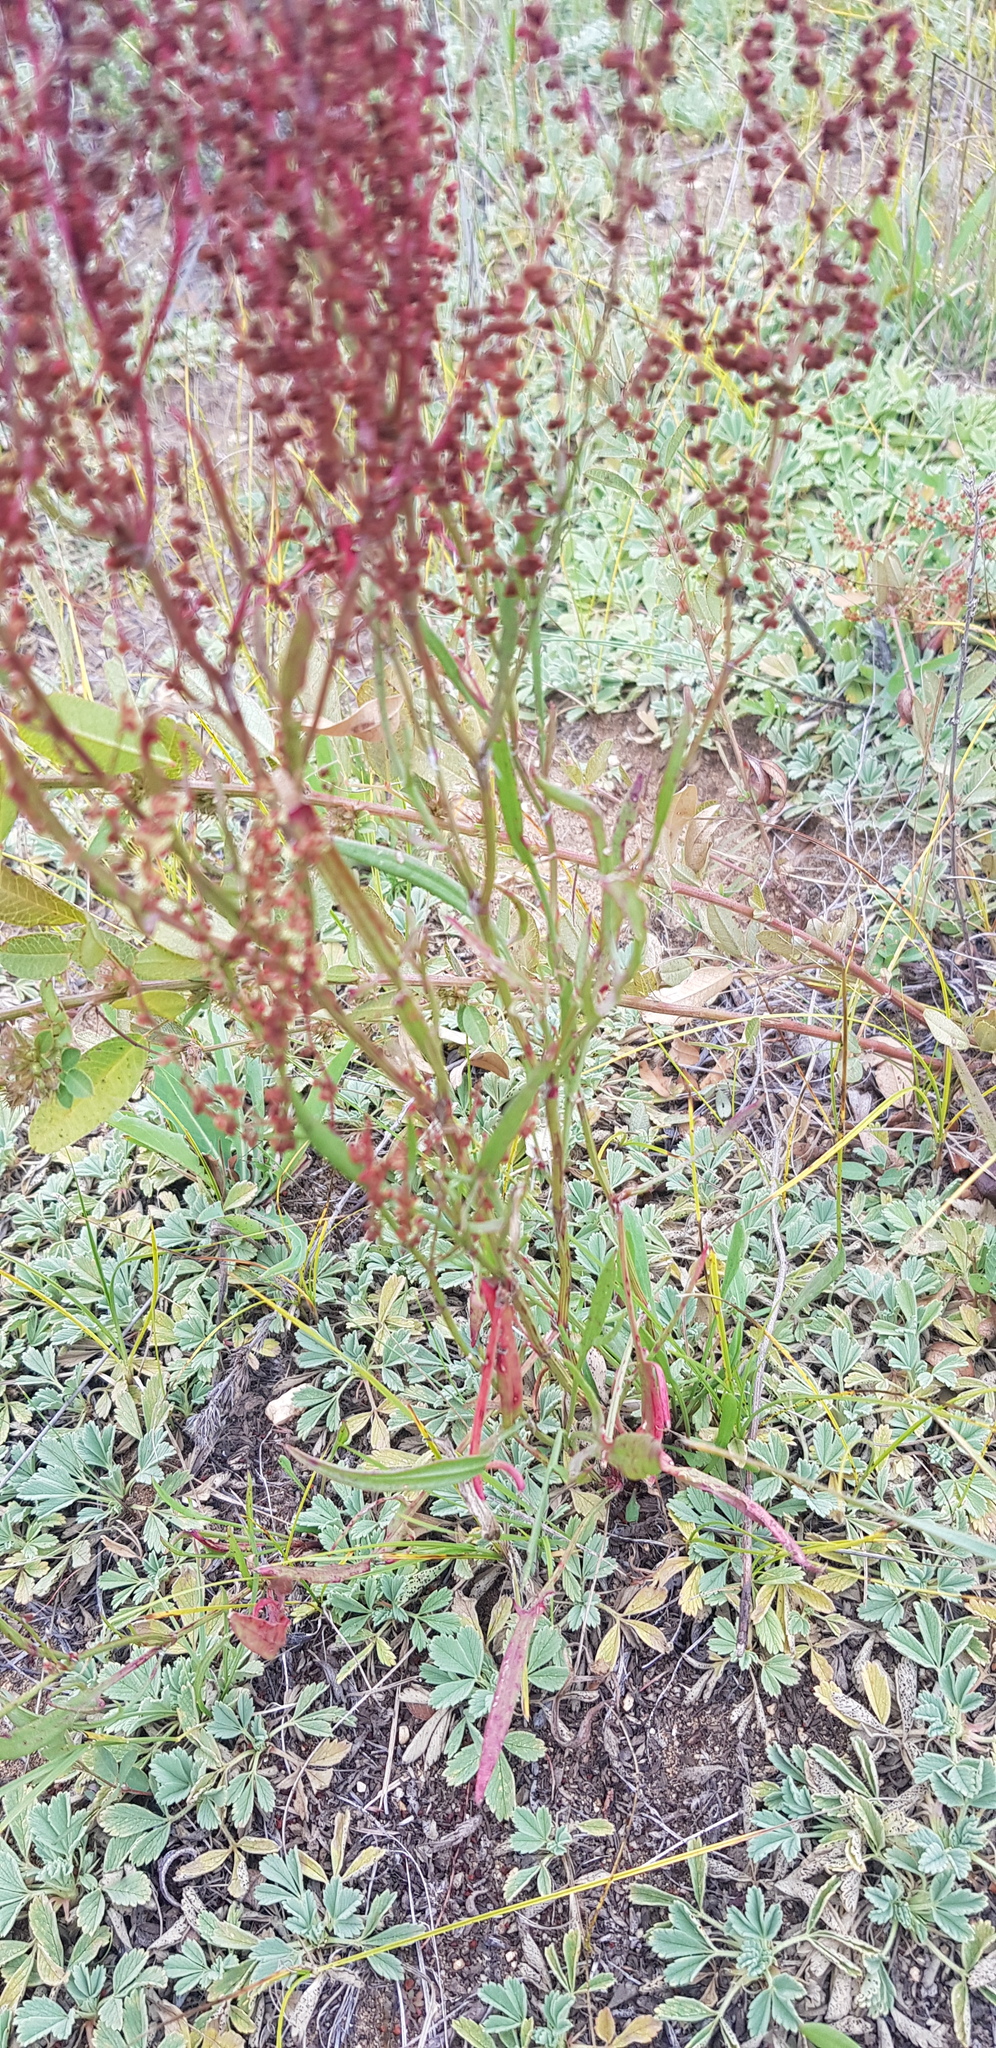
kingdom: Plantae
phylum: Tracheophyta
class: Magnoliopsida
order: Caryophyllales
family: Polygonaceae
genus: Rumex
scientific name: Rumex acetosella
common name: Common sheep sorrel
